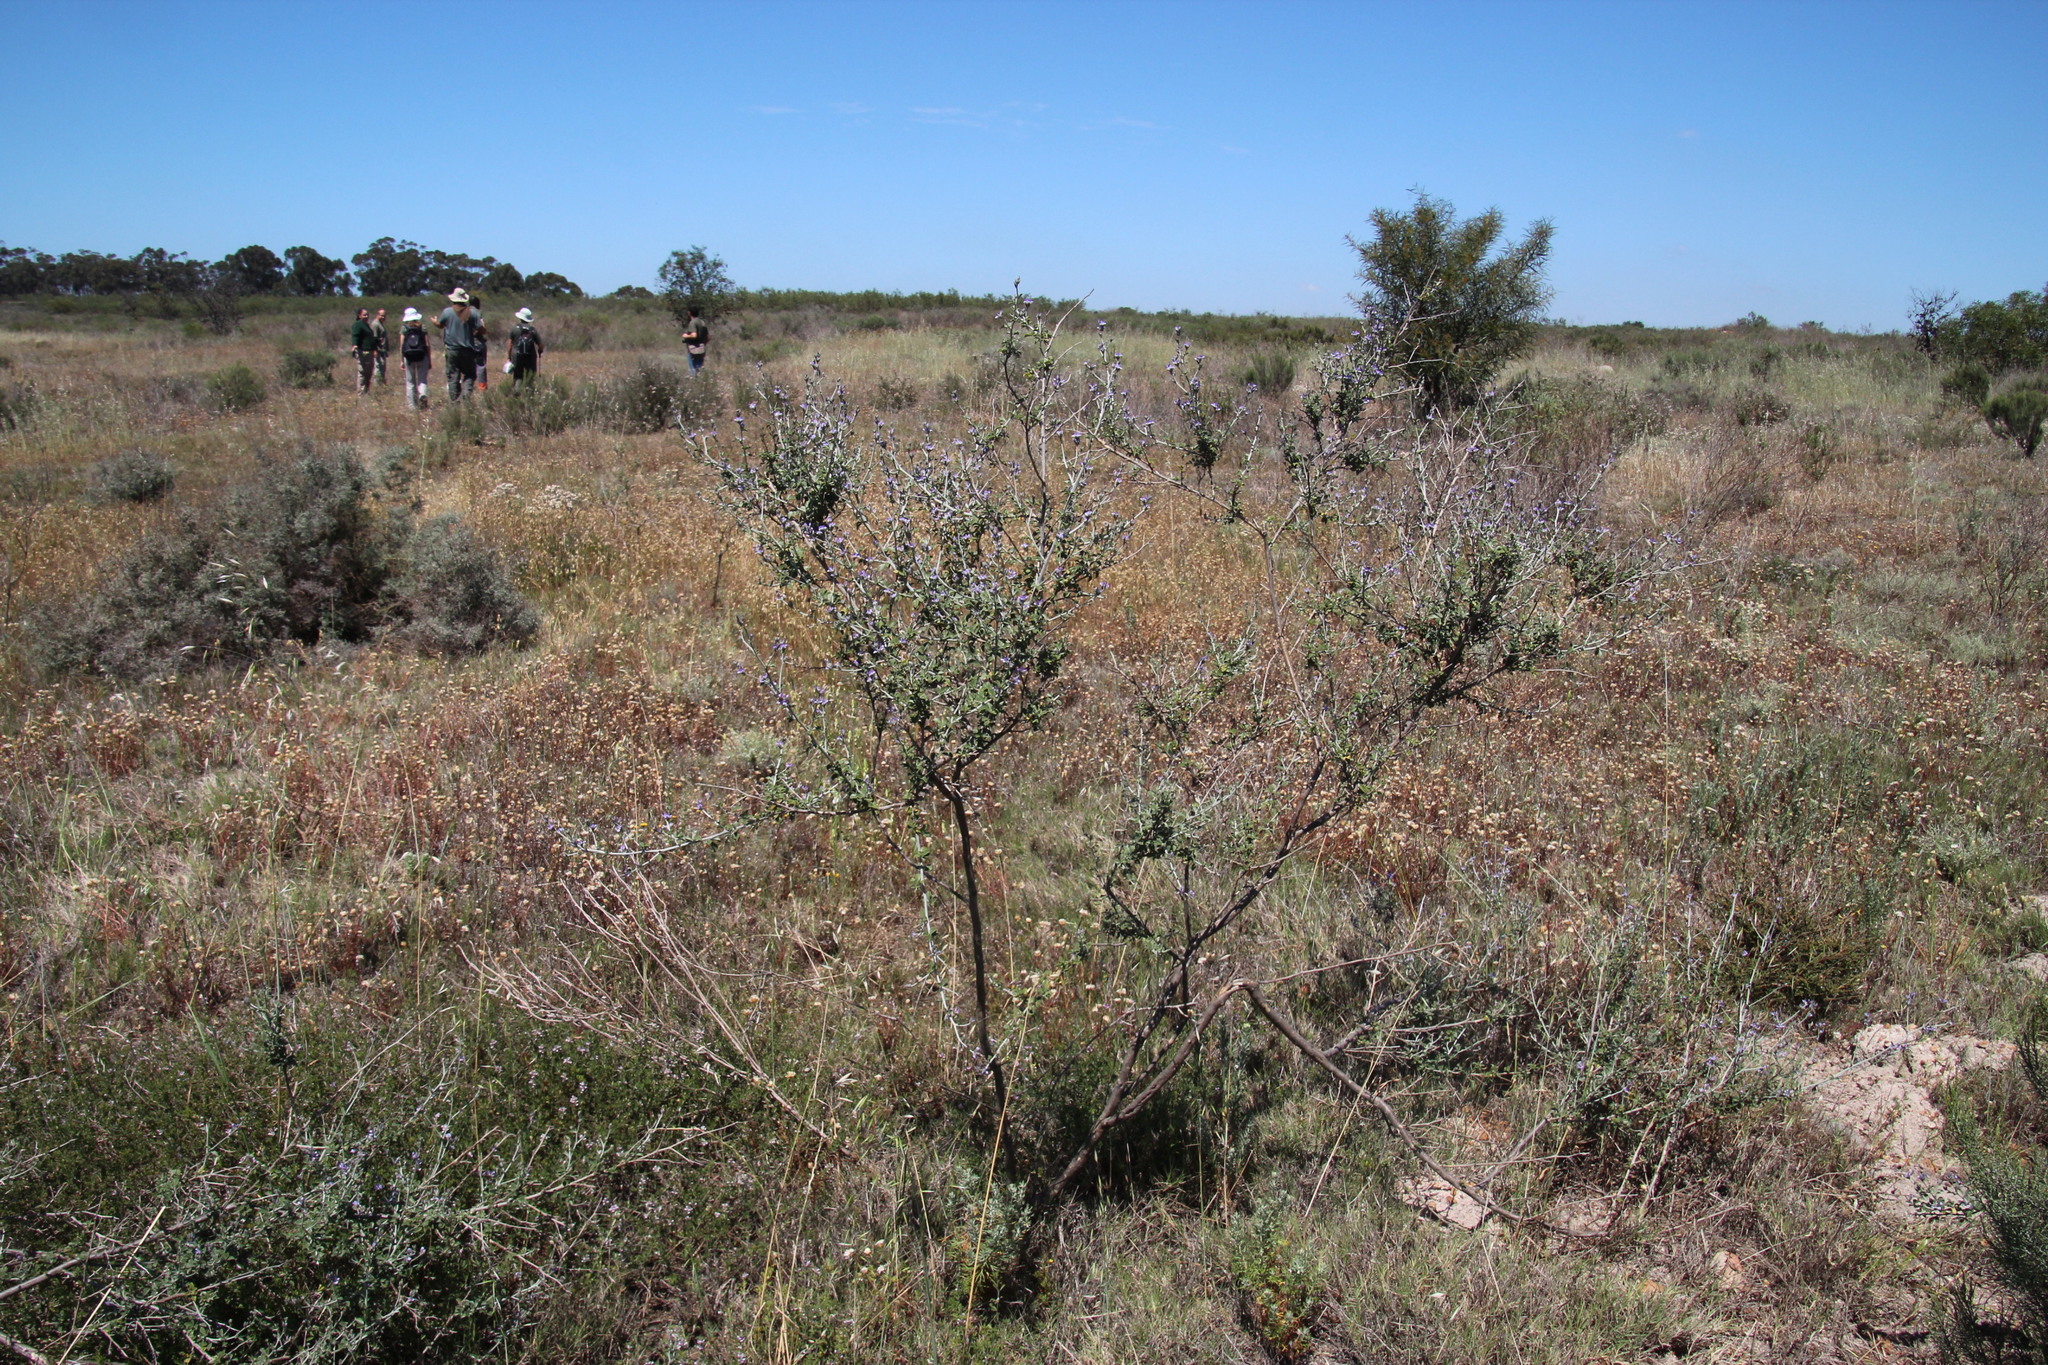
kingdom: Plantae
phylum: Tracheophyta
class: Magnoliopsida
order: Fabales
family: Fabaceae
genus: Psoralea
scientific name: Psoralea hirta
